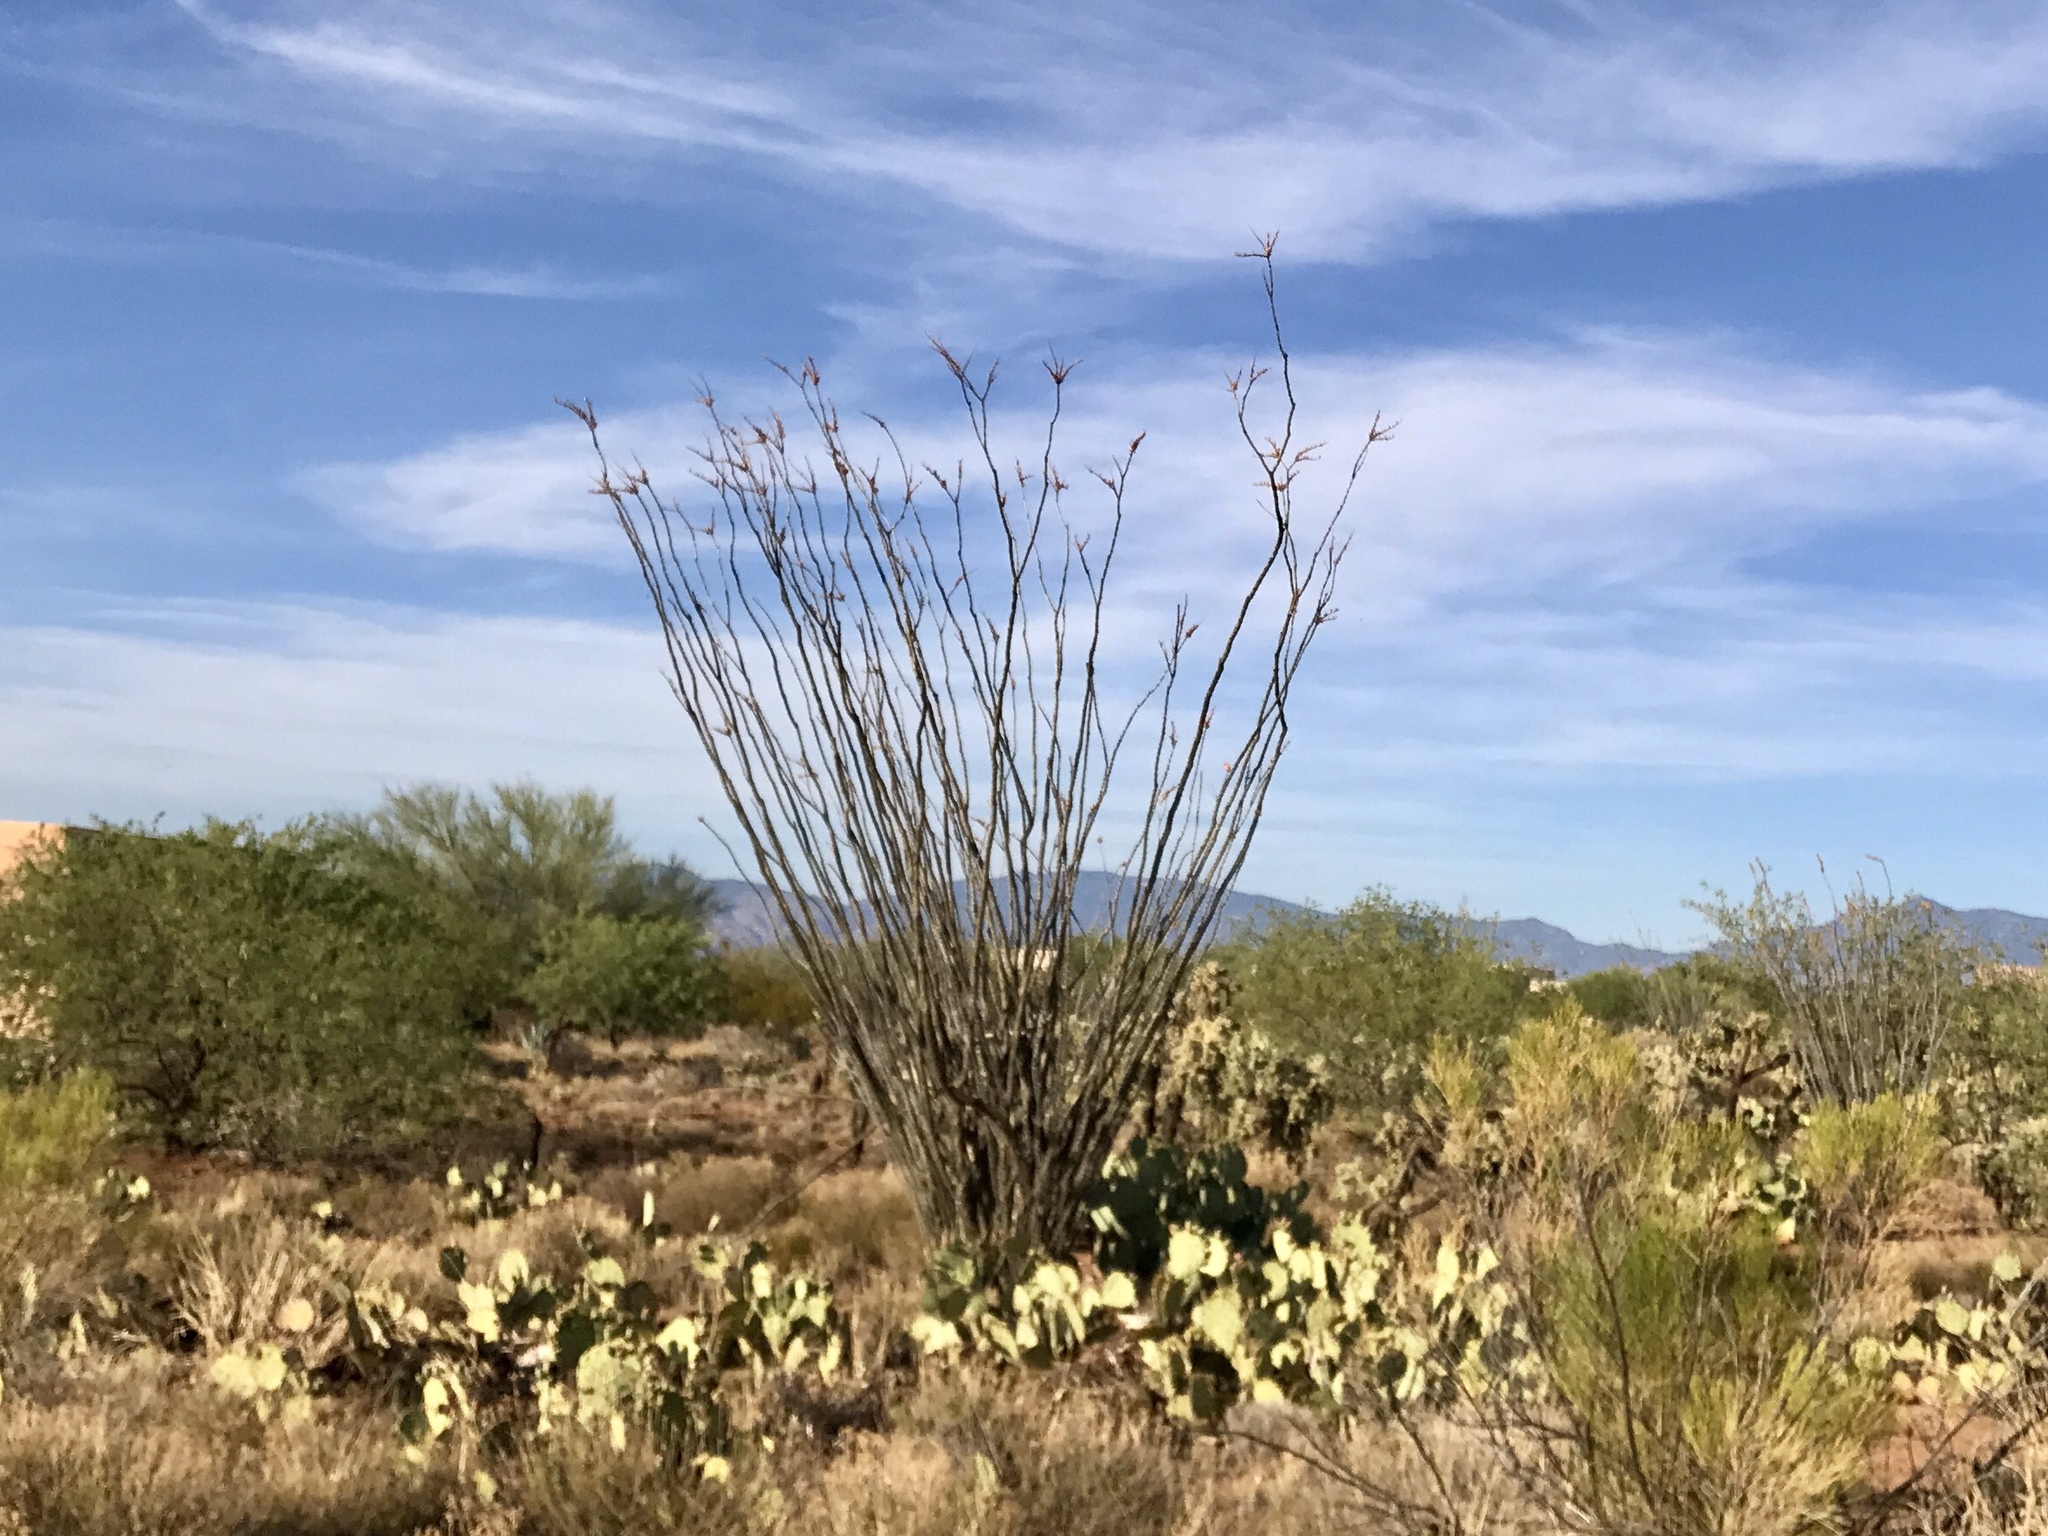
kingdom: Plantae
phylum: Tracheophyta
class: Magnoliopsida
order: Ericales
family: Fouquieriaceae
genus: Fouquieria
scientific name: Fouquieria splendens
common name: Vine-cactus
